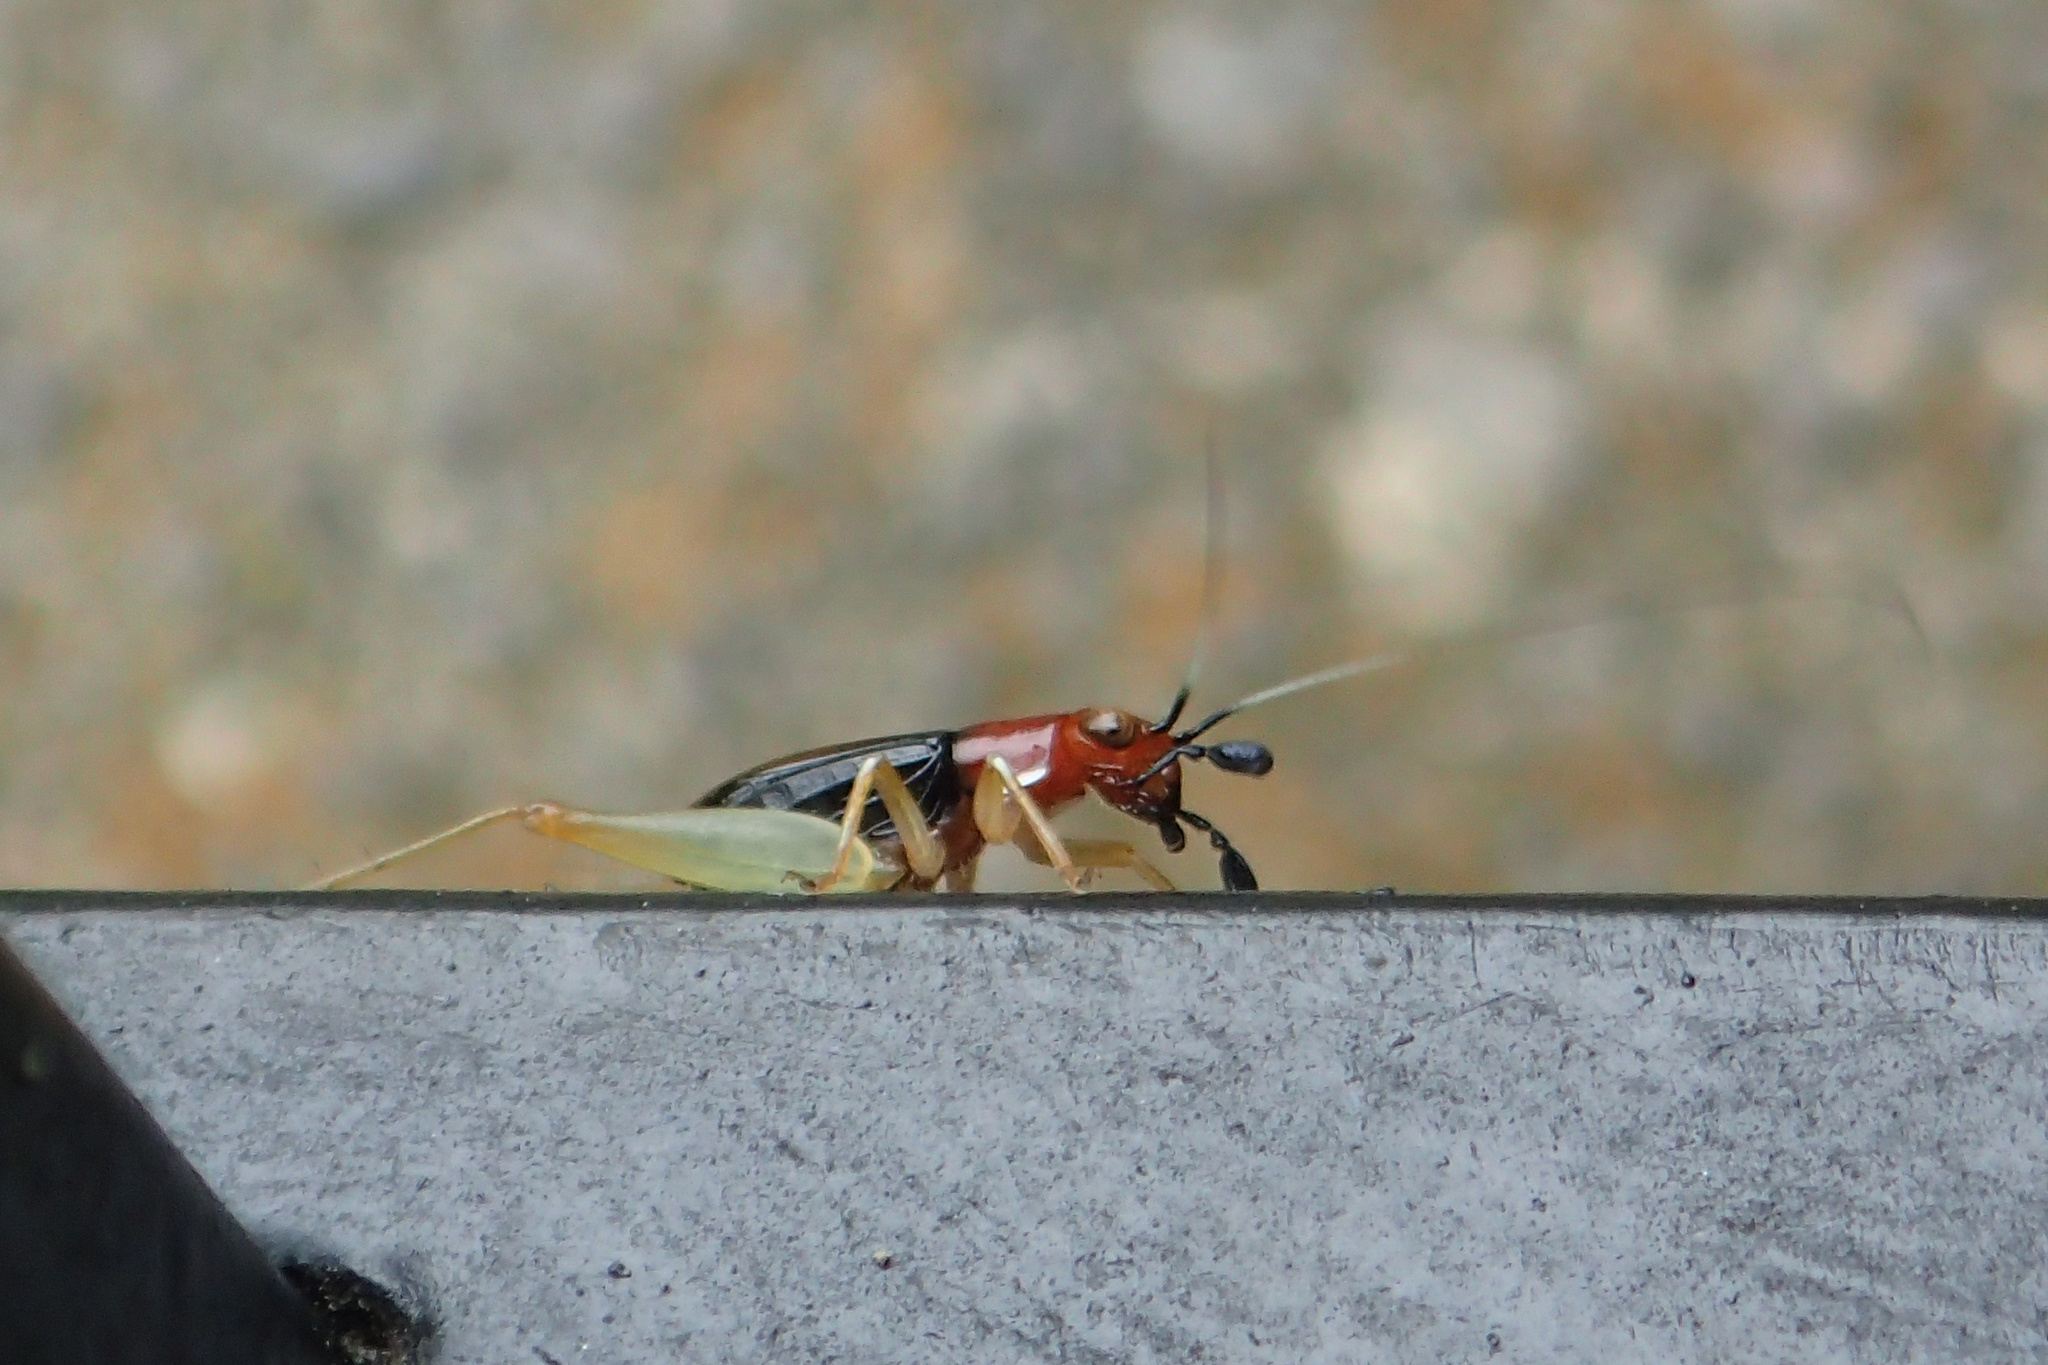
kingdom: Animalia
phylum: Arthropoda
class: Insecta
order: Orthoptera
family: Trigonidiidae
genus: Phyllopalpus
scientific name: Phyllopalpus pulchellus
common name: Handsome trig
